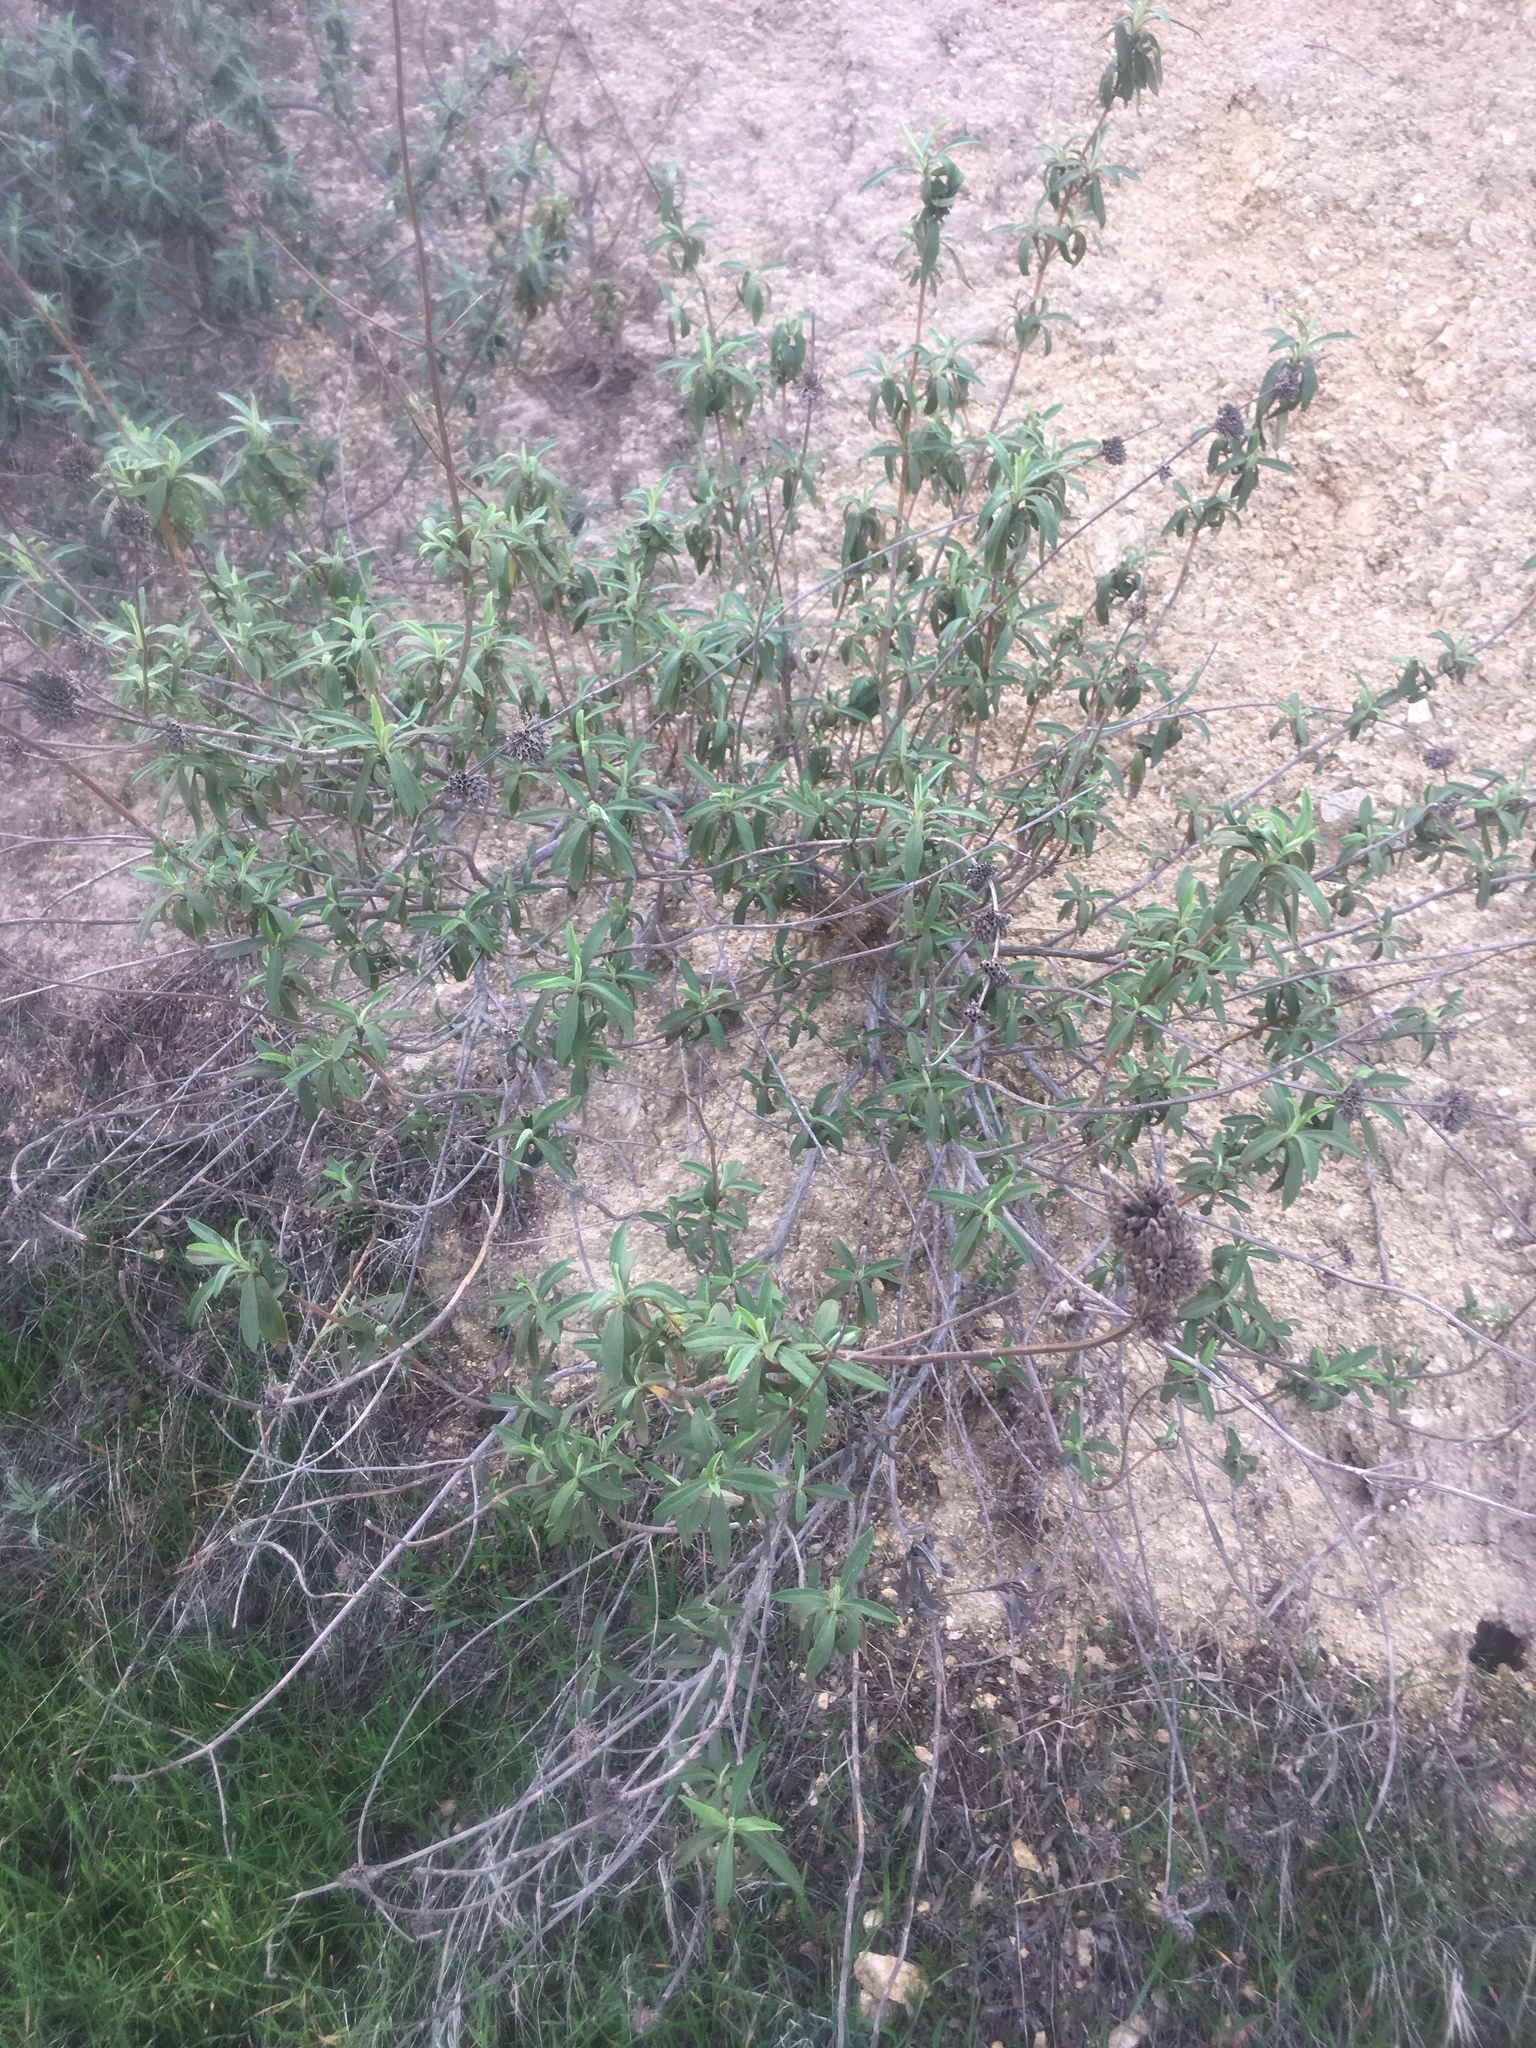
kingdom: Plantae
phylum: Tracheophyta
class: Magnoliopsida
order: Lamiales
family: Lamiaceae
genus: Salvia
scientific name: Salvia mellifera
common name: Black sage
